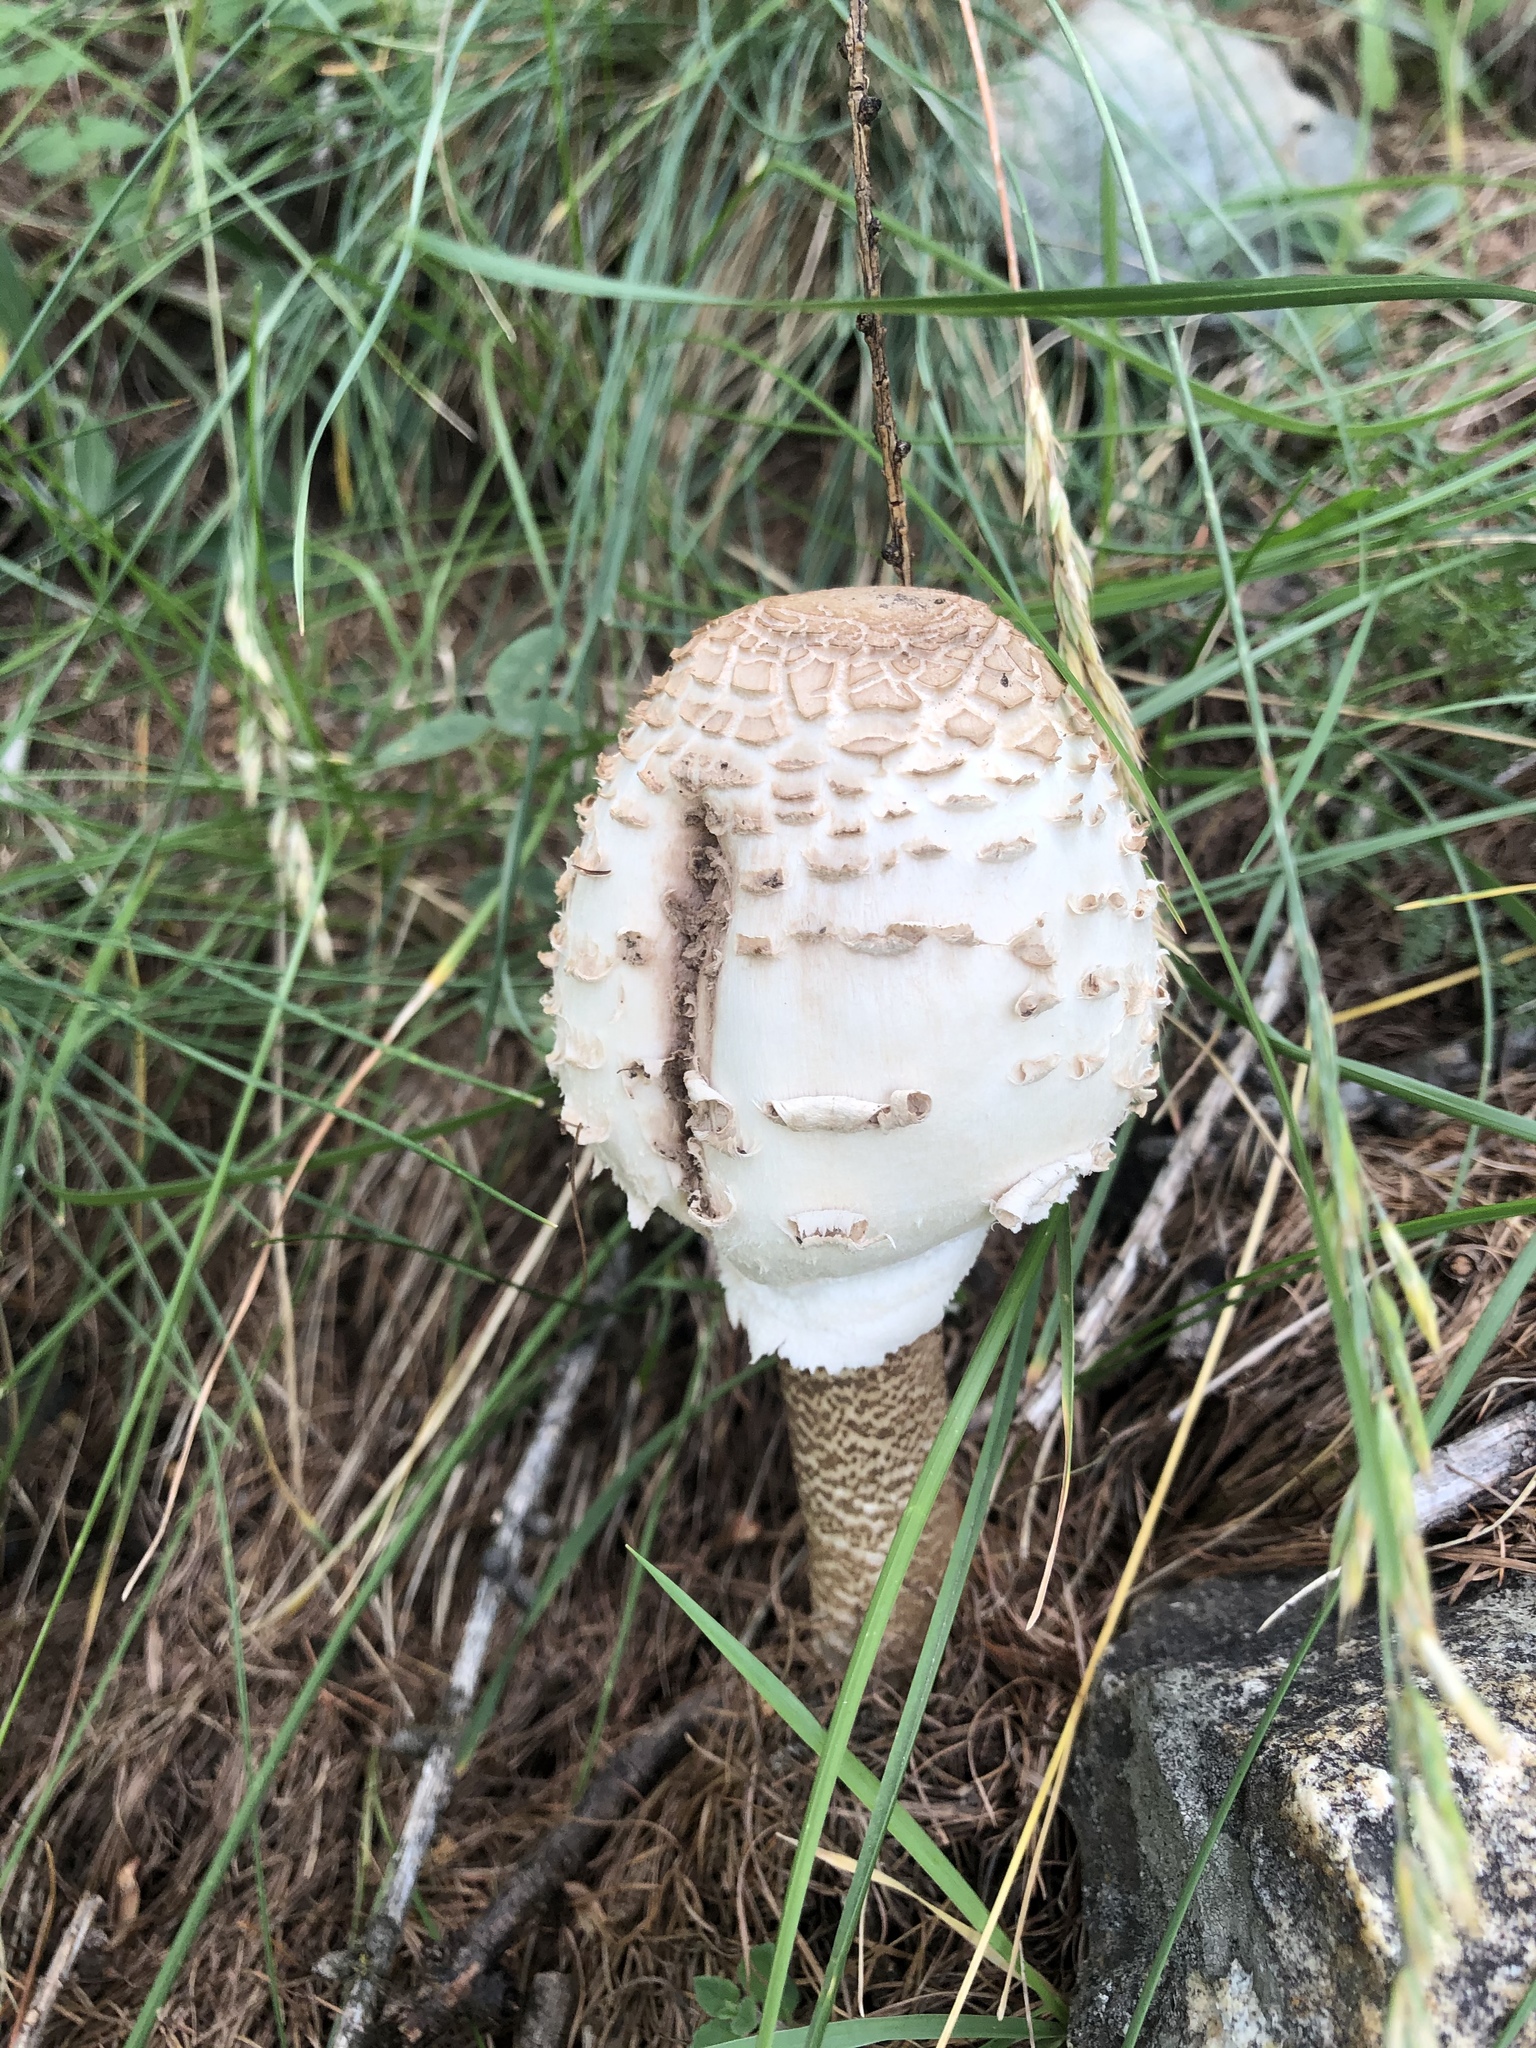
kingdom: Fungi
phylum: Basidiomycota
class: Agaricomycetes
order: Agaricales
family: Agaricaceae
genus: Macrolepiota
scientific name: Macrolepiota procera
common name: Parasol
